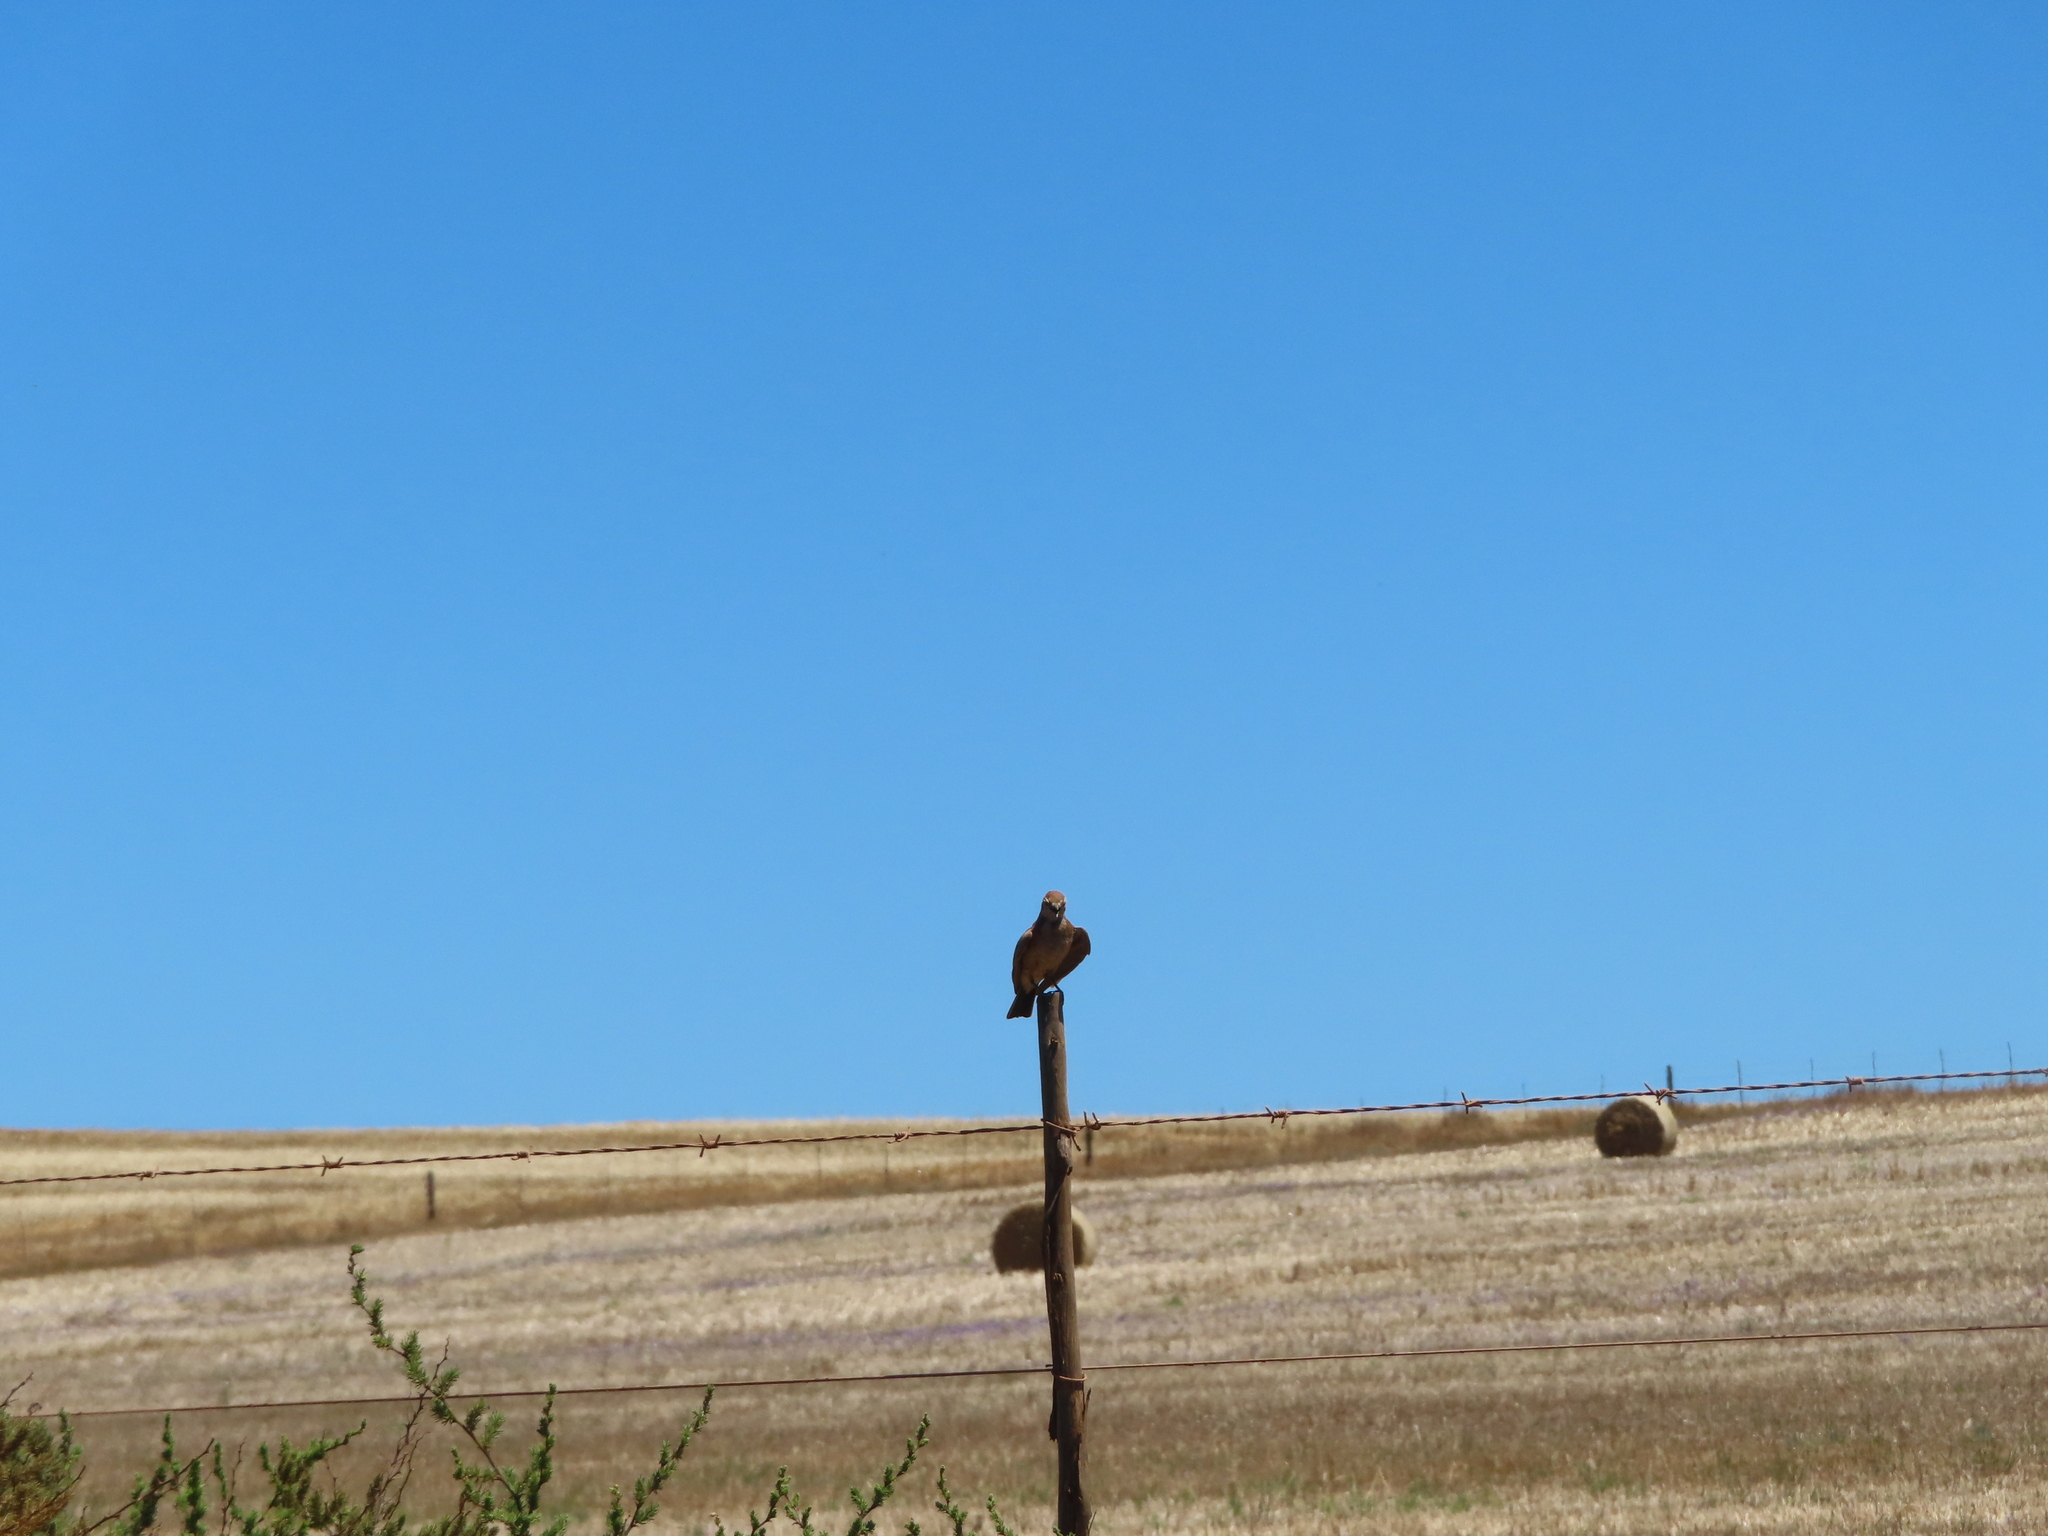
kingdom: Animalia
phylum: Chordata
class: Aves
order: Passeriformes
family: Alaudidae
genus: Calandrella
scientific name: Calandrella cinerea
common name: Red-capped lark
